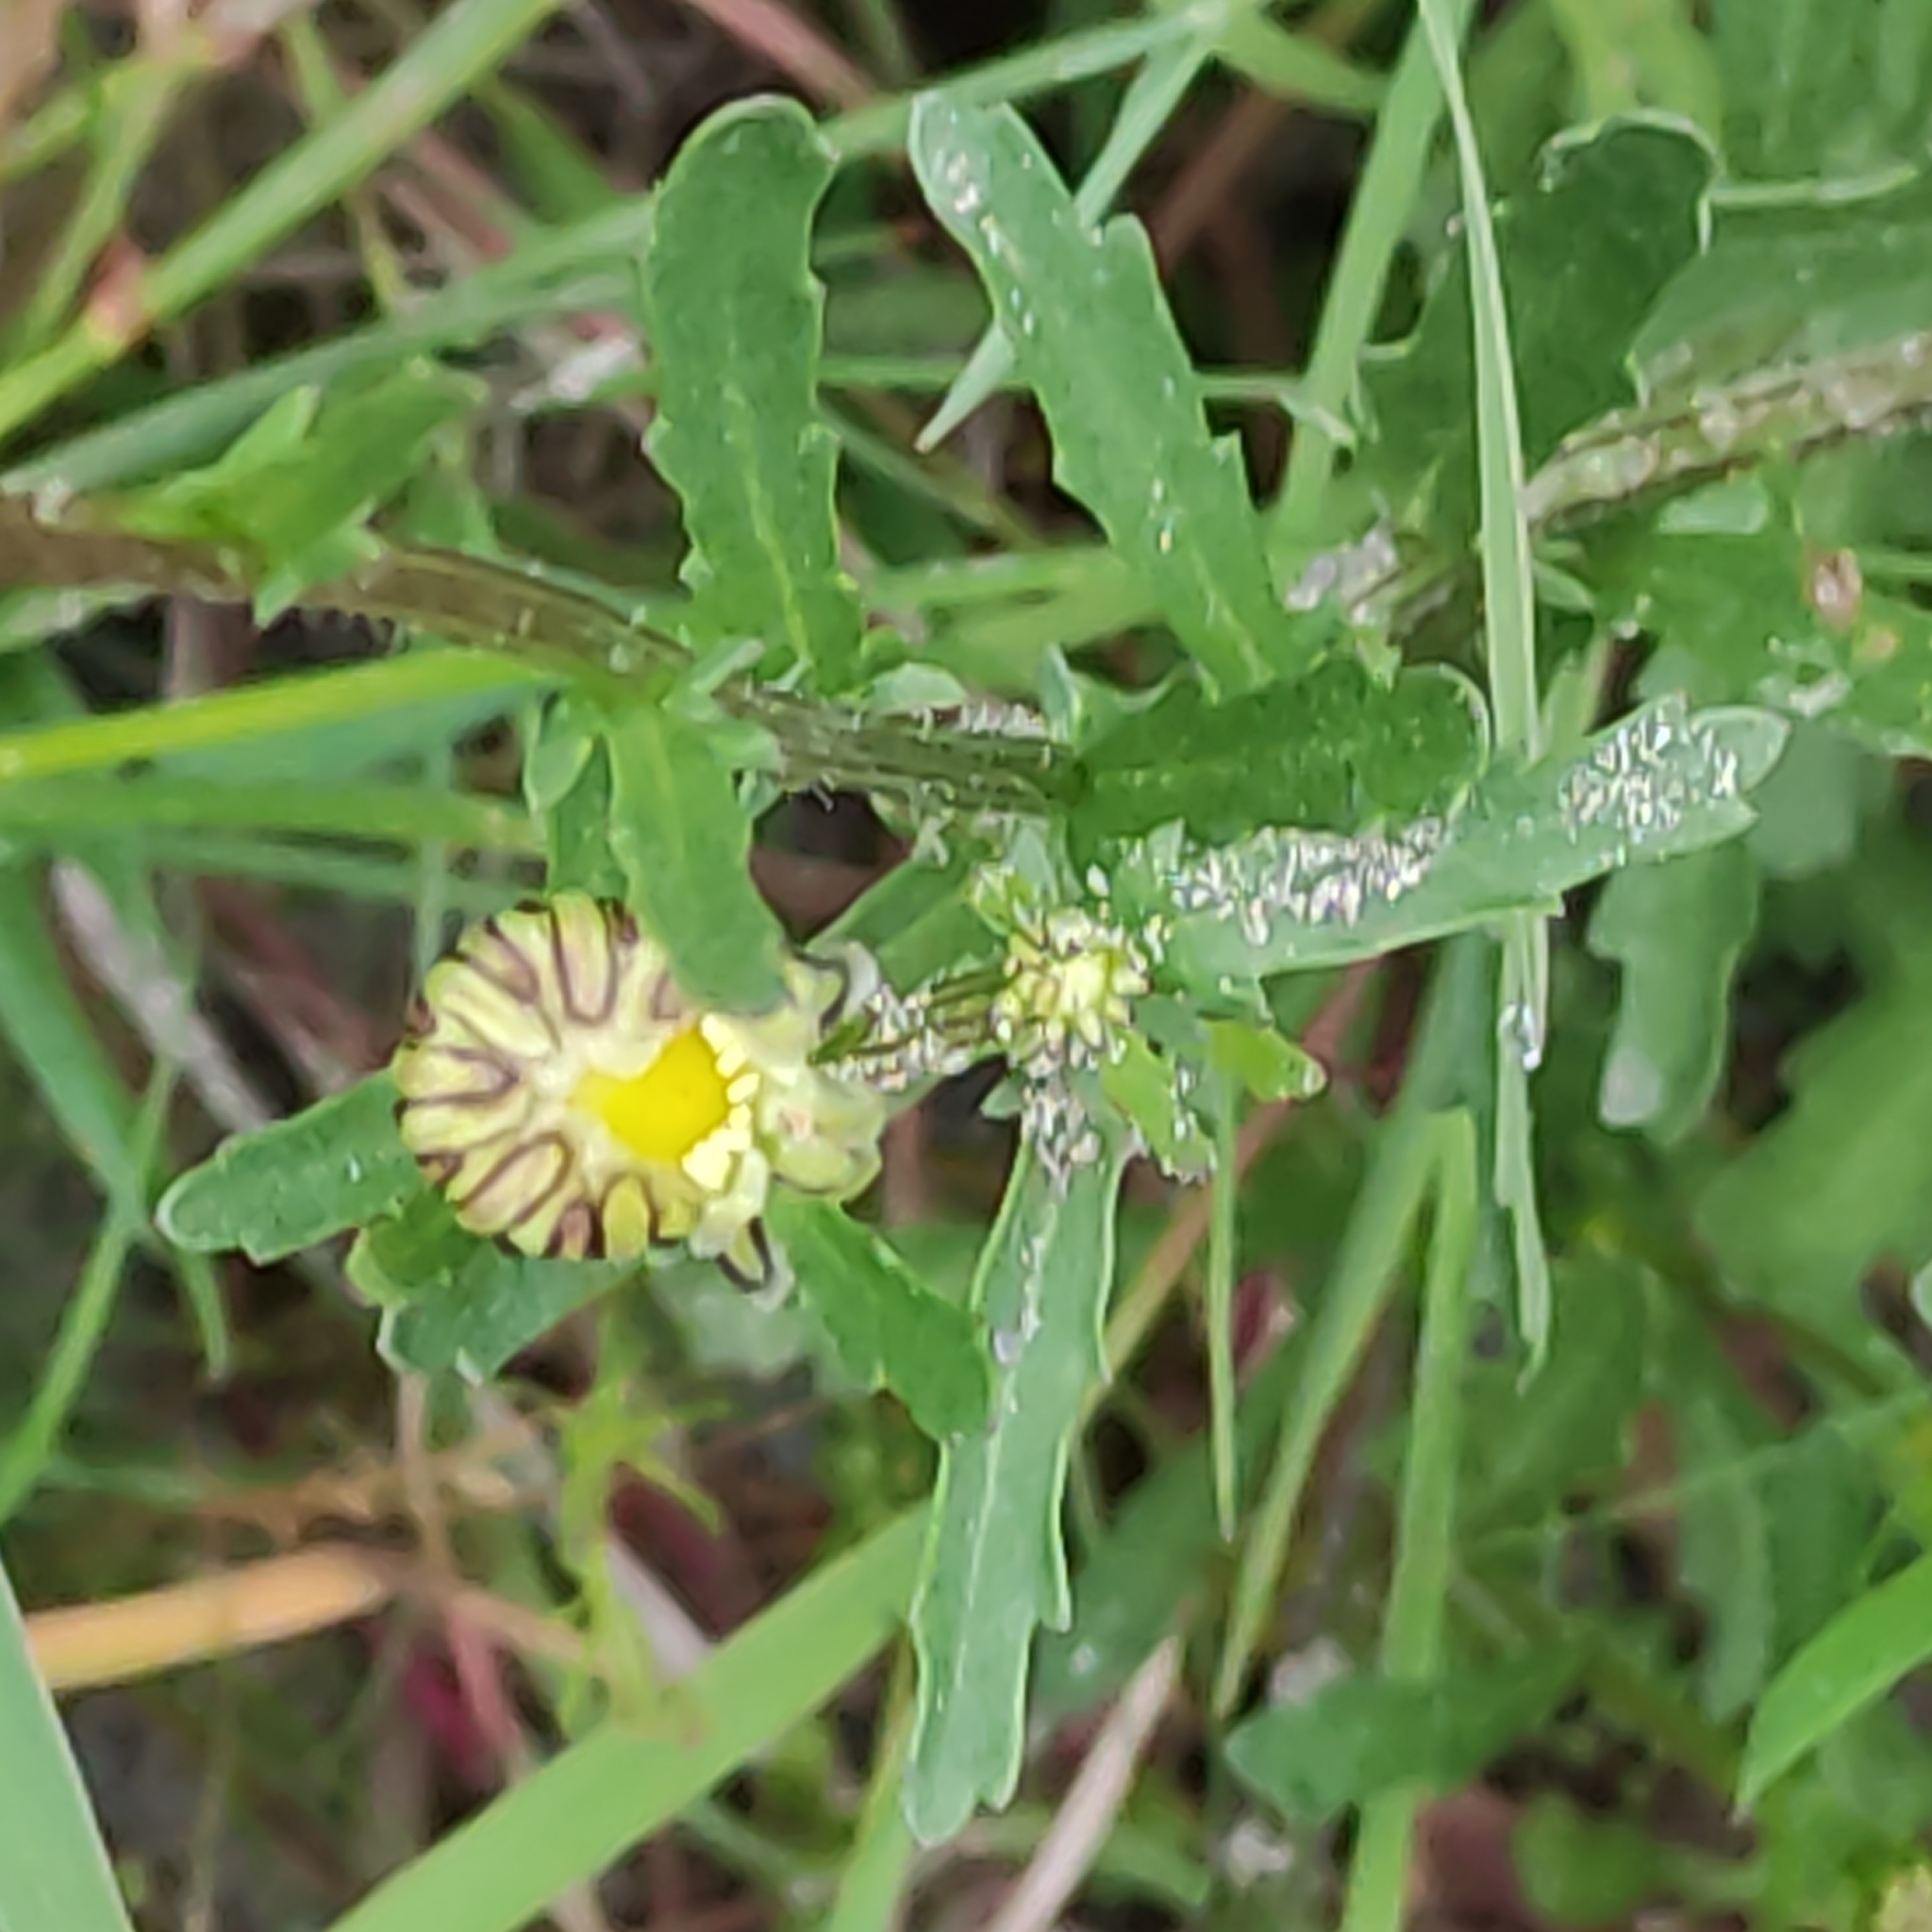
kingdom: Plantae
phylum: Tracheophyta
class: Magnoliopsida
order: Asterales
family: Asteraceae
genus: Leucanthemum
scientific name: Leucanthemum vulgare
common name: Oxeye daisy
